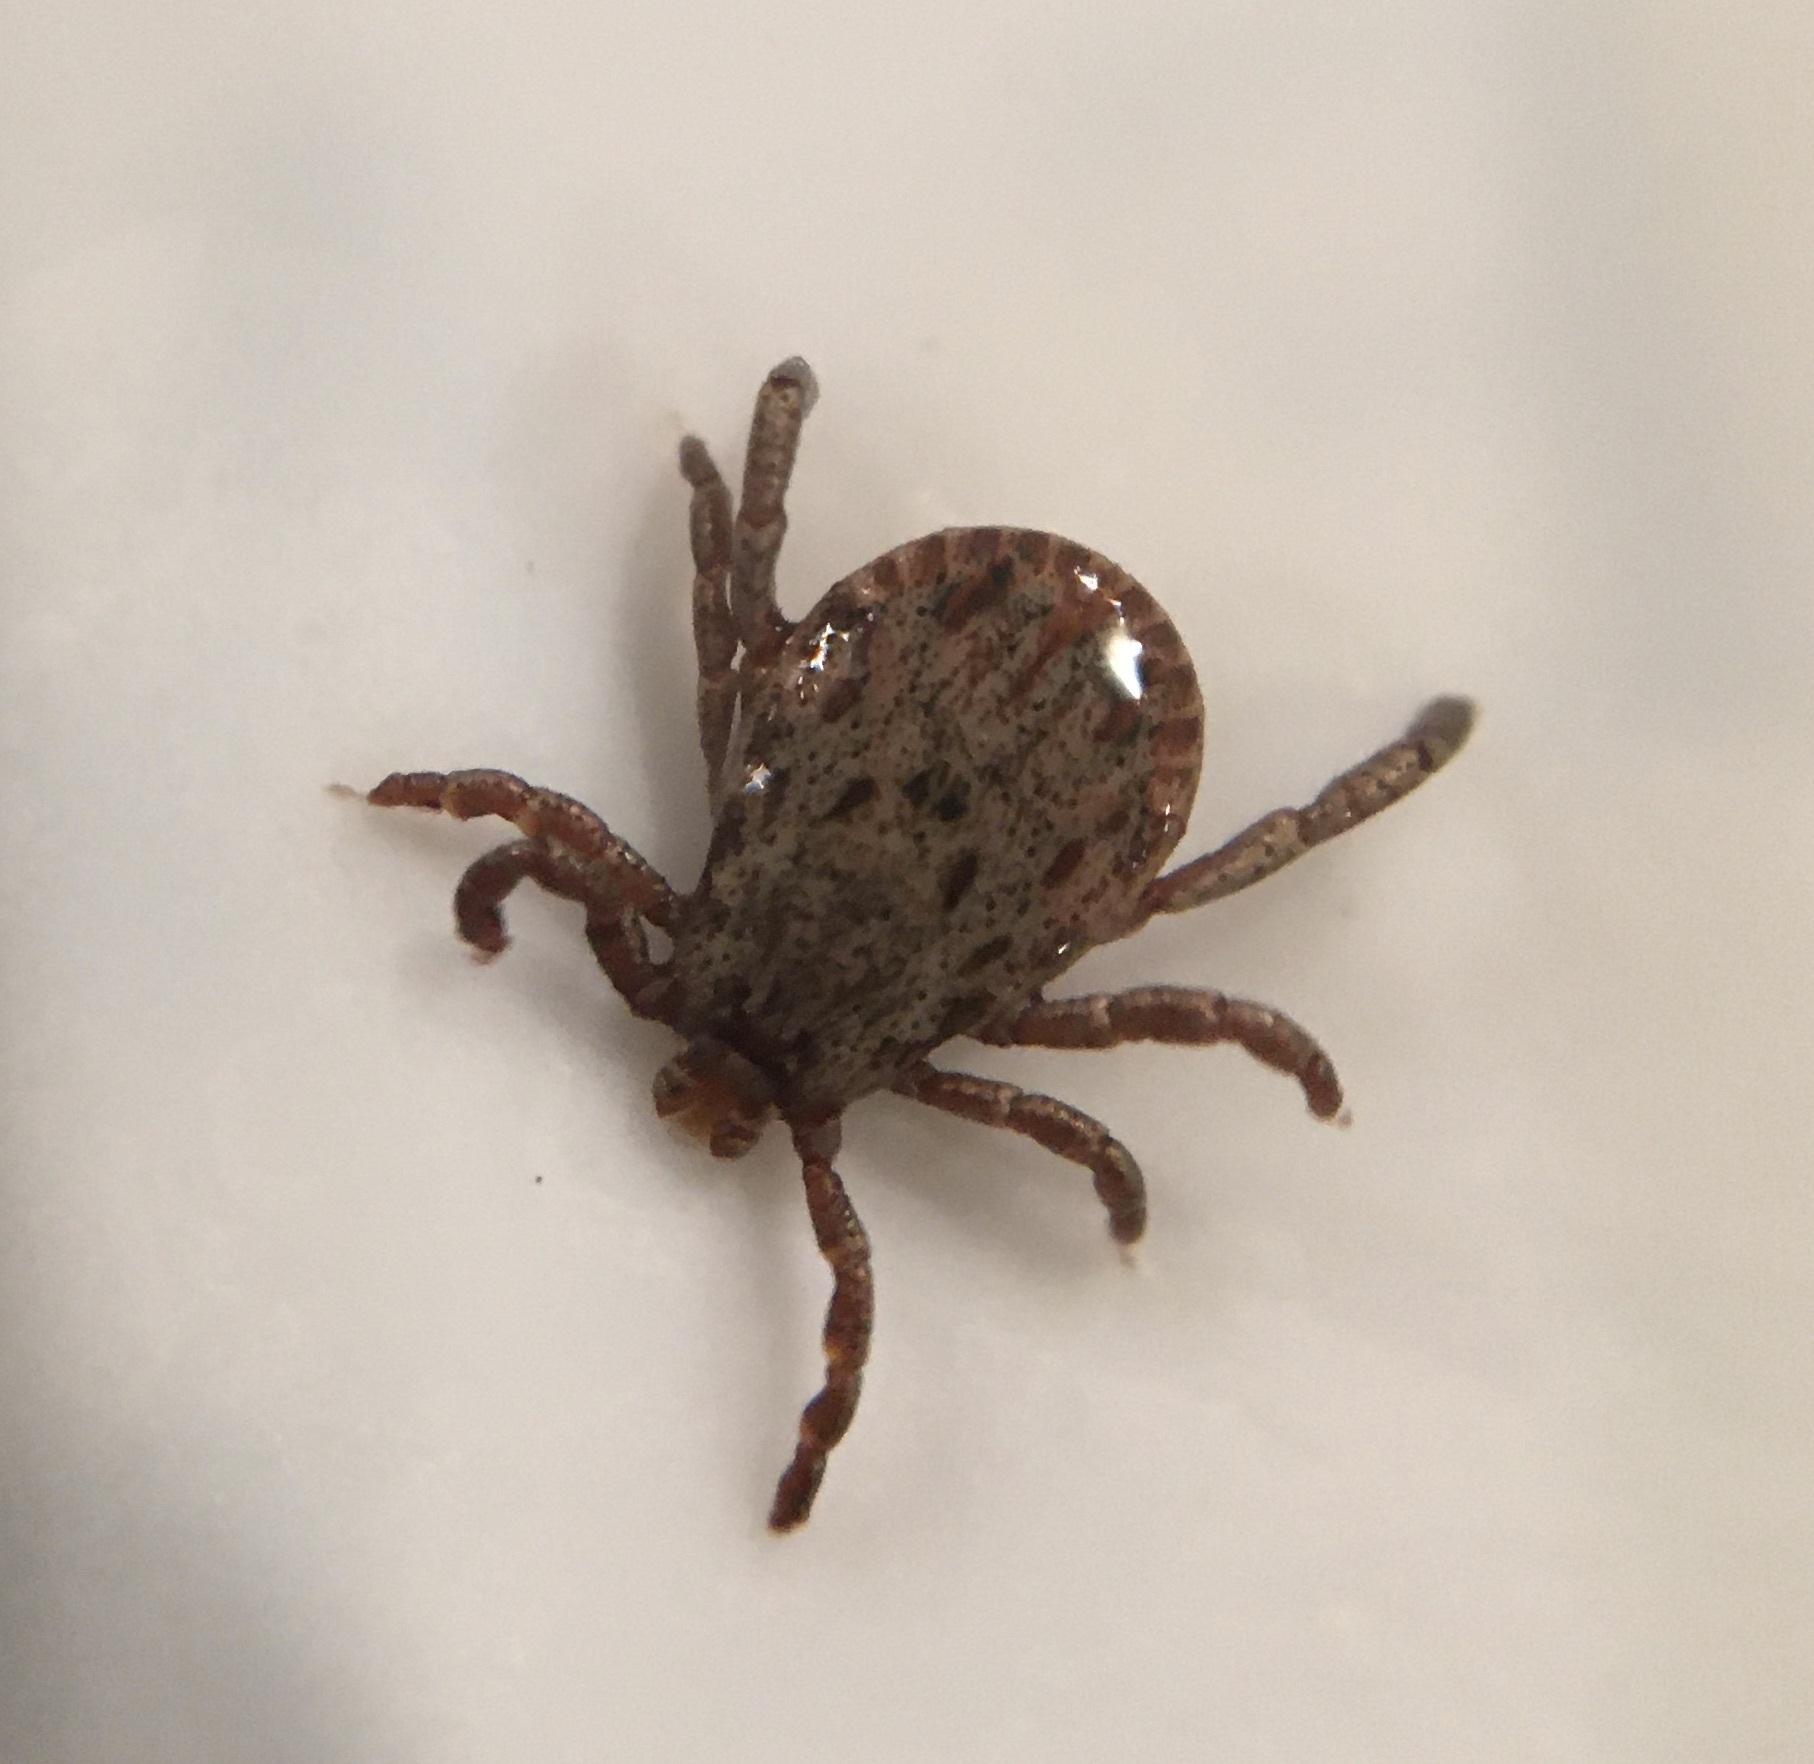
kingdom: Animalia
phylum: Arthropoda
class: Arachnida
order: Ixodida
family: Ixodidae
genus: Dermacentor
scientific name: Dermacentor occidentalis
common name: Net tick
